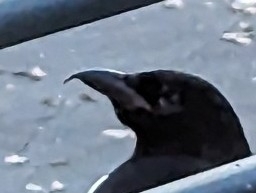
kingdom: Animalia
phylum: Chordata
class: Aves
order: Passeriformes
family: Corvidae
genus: Pica
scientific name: Pica hudsonia
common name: Black-billed magpie
